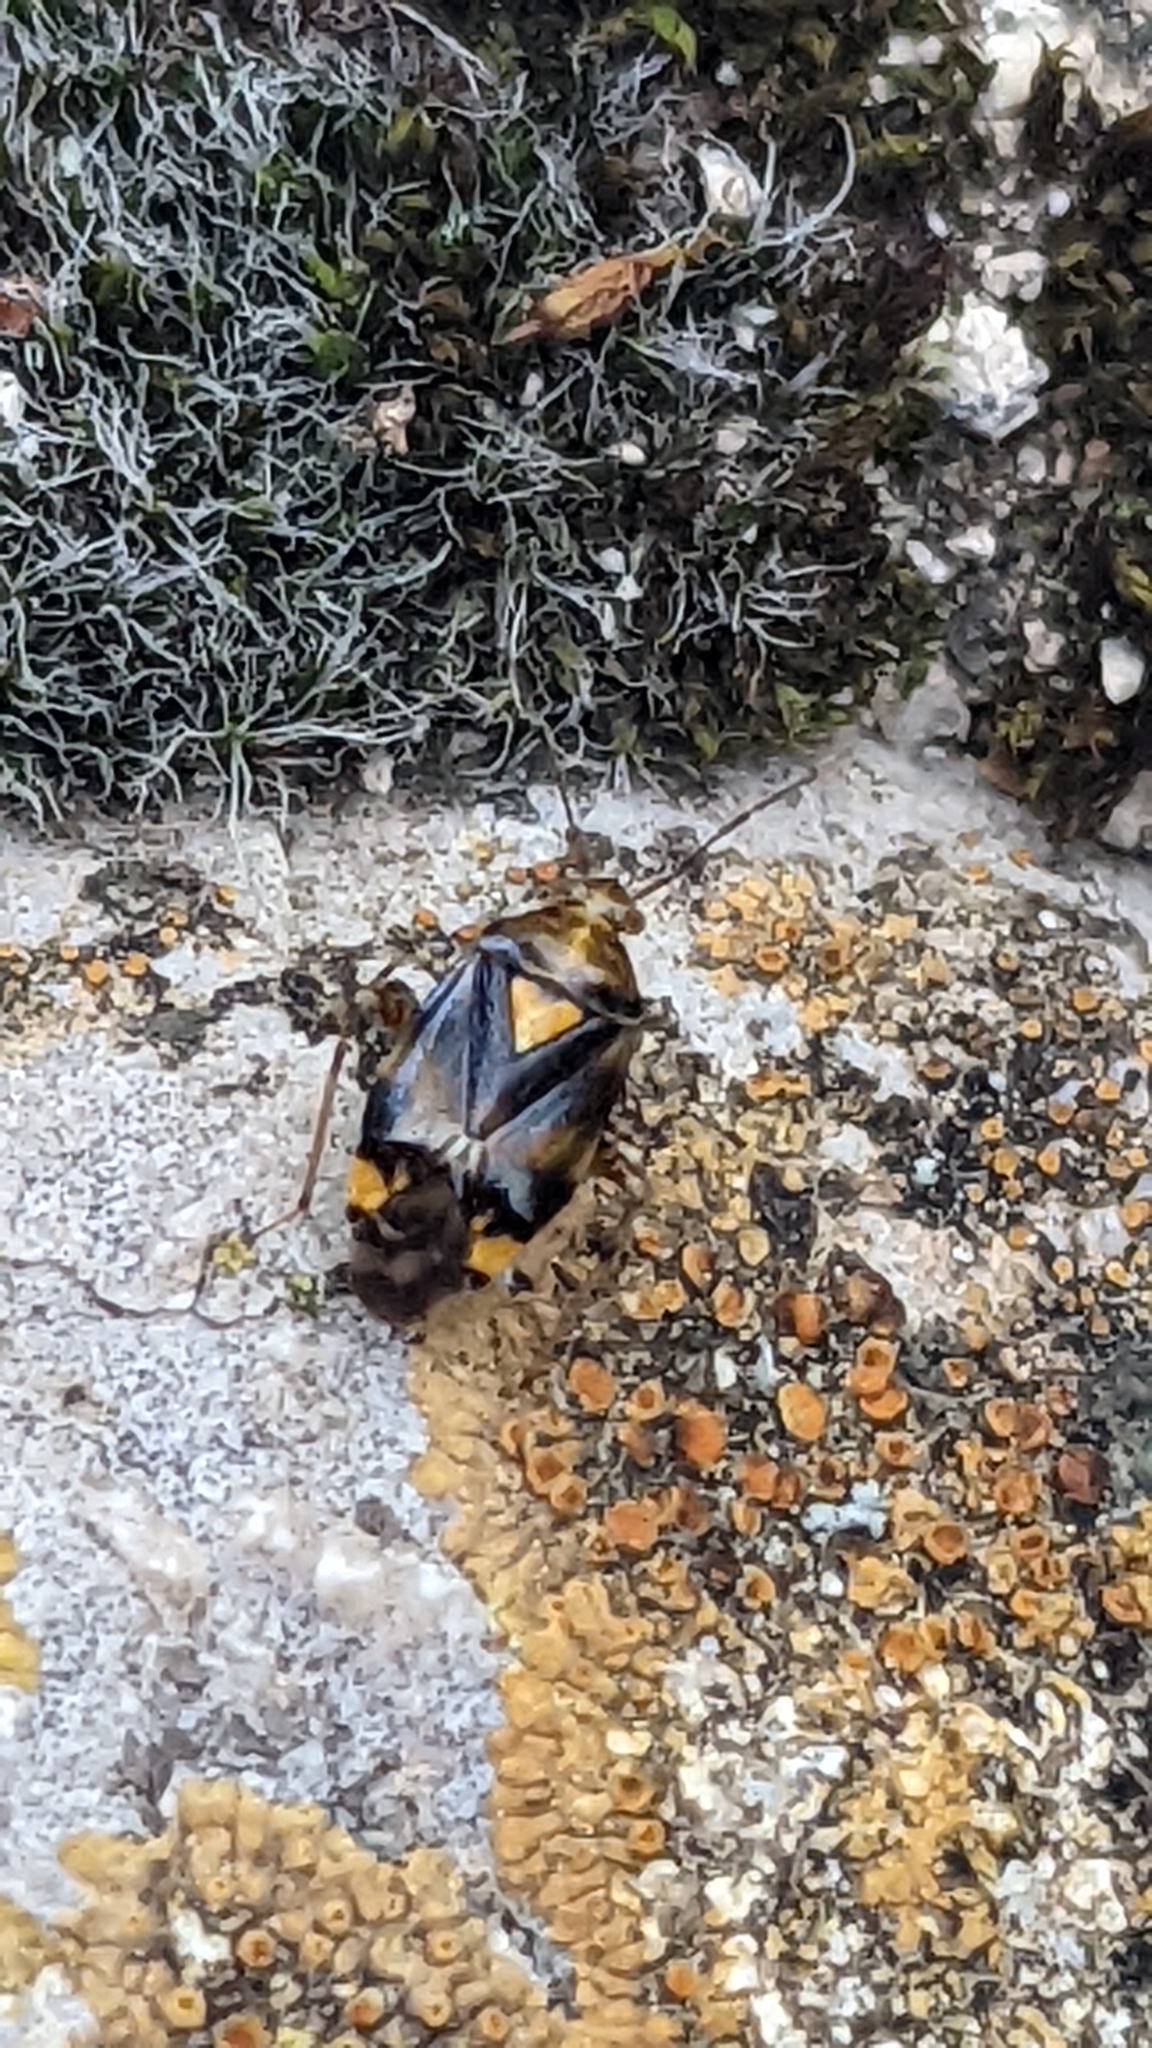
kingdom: Animalia
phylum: Arthropoda
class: Insecta
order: Hemiptera
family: Miridae
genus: Liocoris
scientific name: Liocoris tripustulatus
